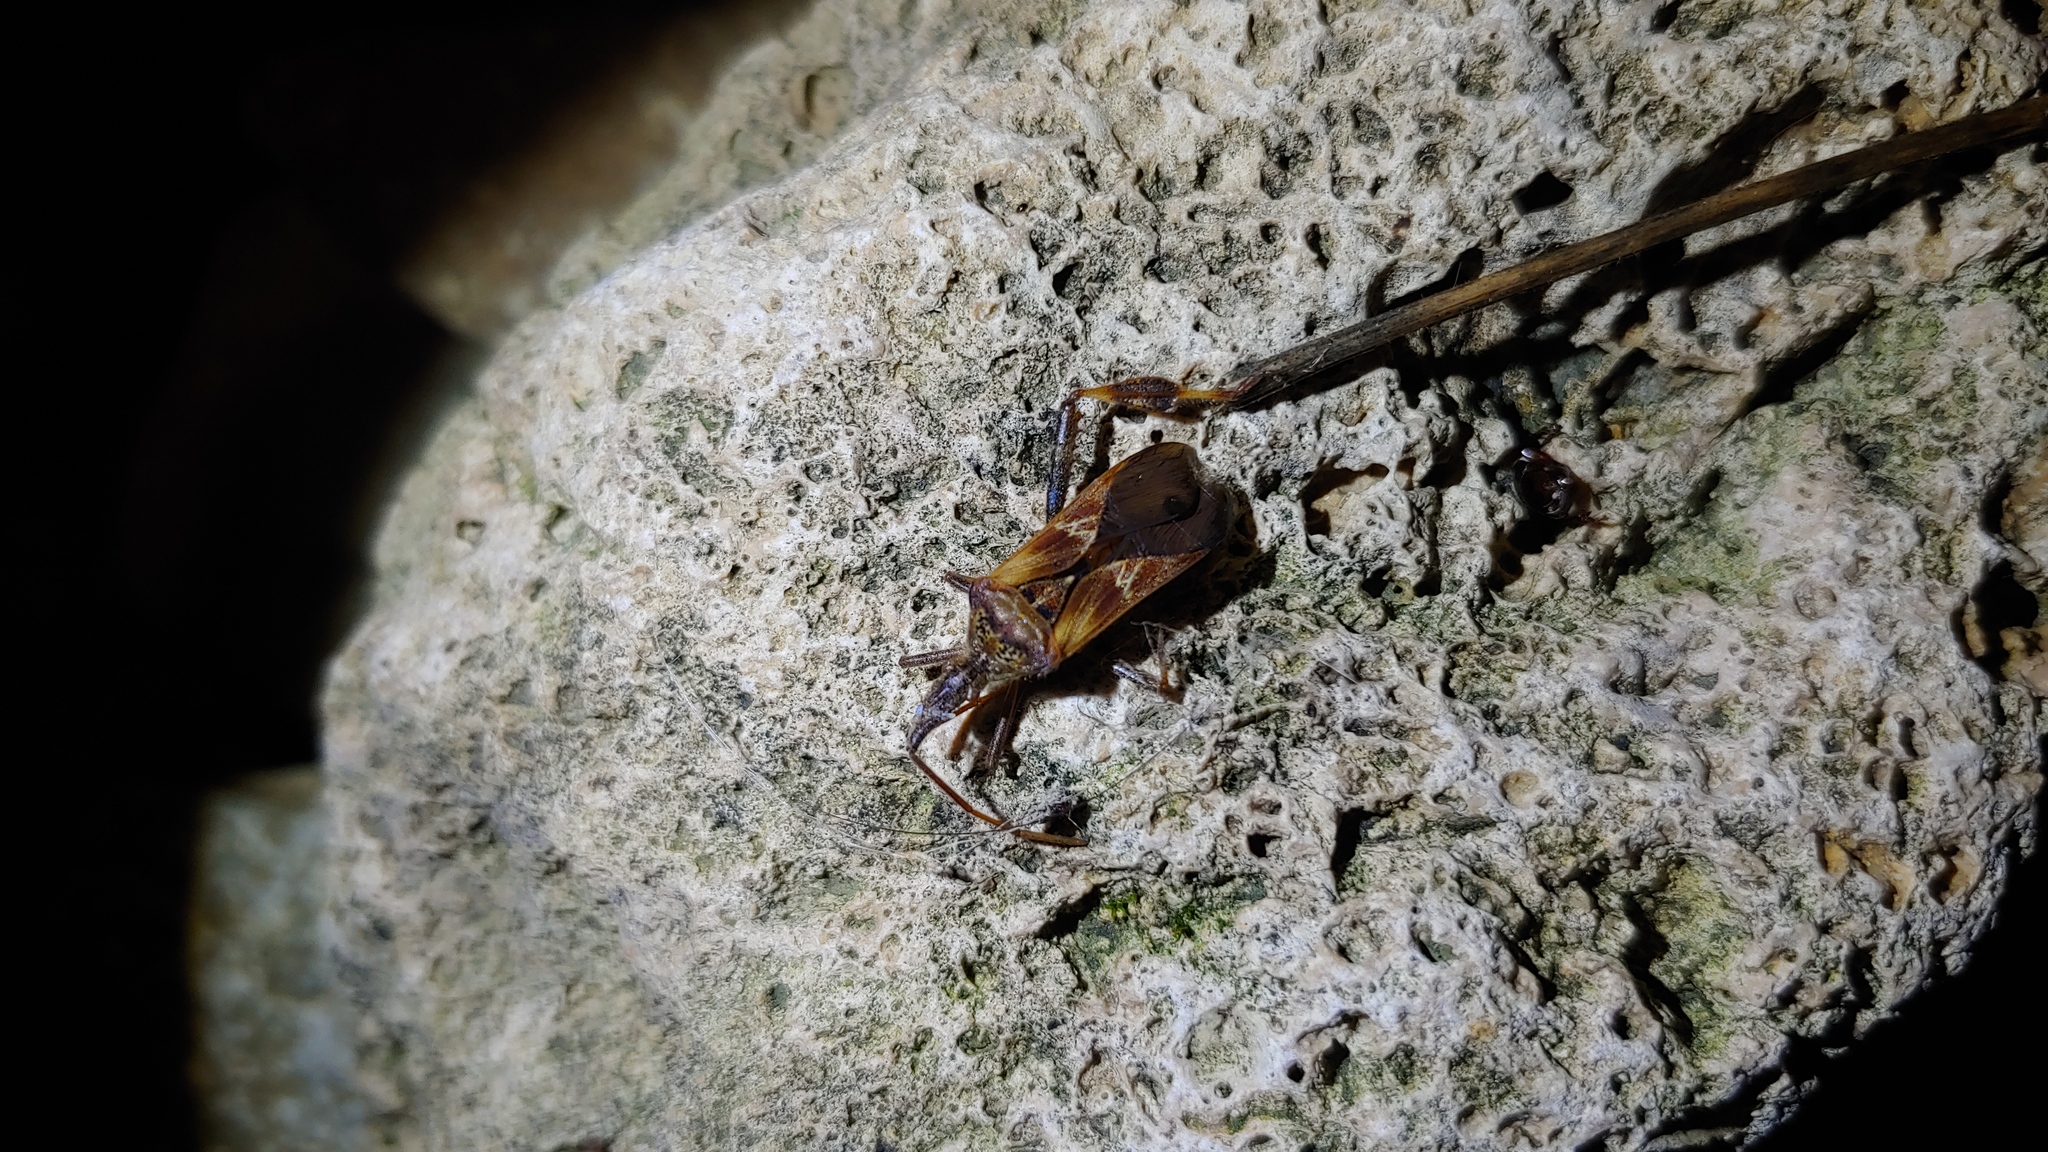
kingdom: Animalia
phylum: Arthropoda
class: Insecta
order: Hemiptera
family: Coreidae
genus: Leptoglossus
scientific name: Leptoglossus occidentalis
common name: Western conifer-seed bug
